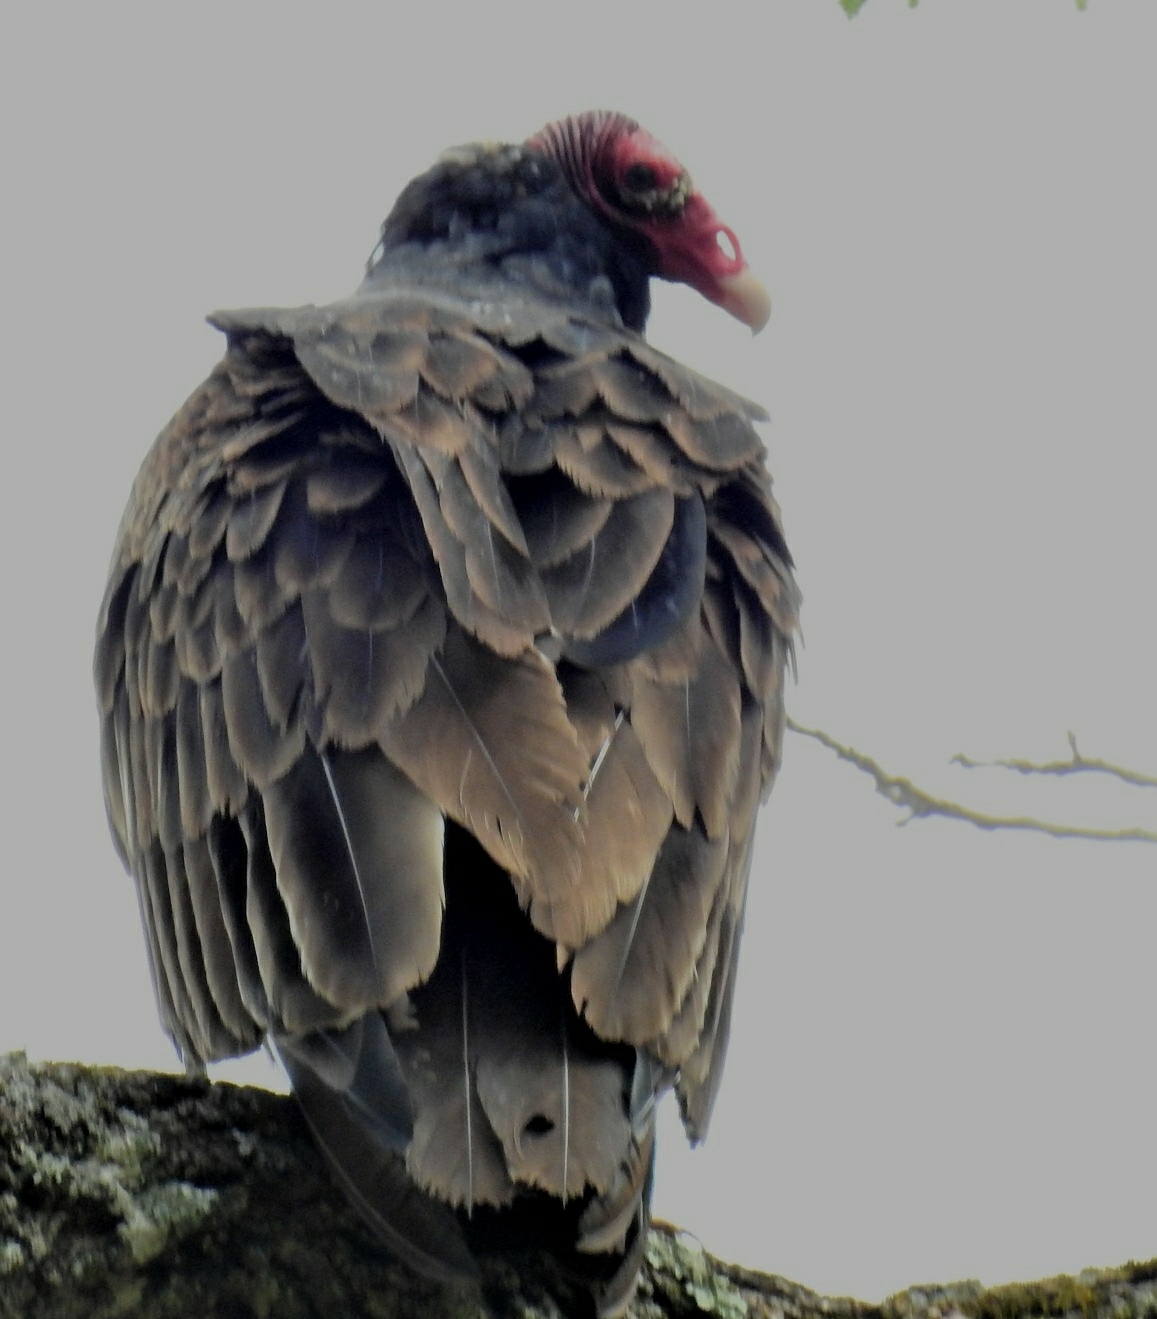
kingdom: Animalia
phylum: Chordata
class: Aves
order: Accipitriformes
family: Cathartidae
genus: Cathartes
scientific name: Cathartes aura
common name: Turkey vulture
